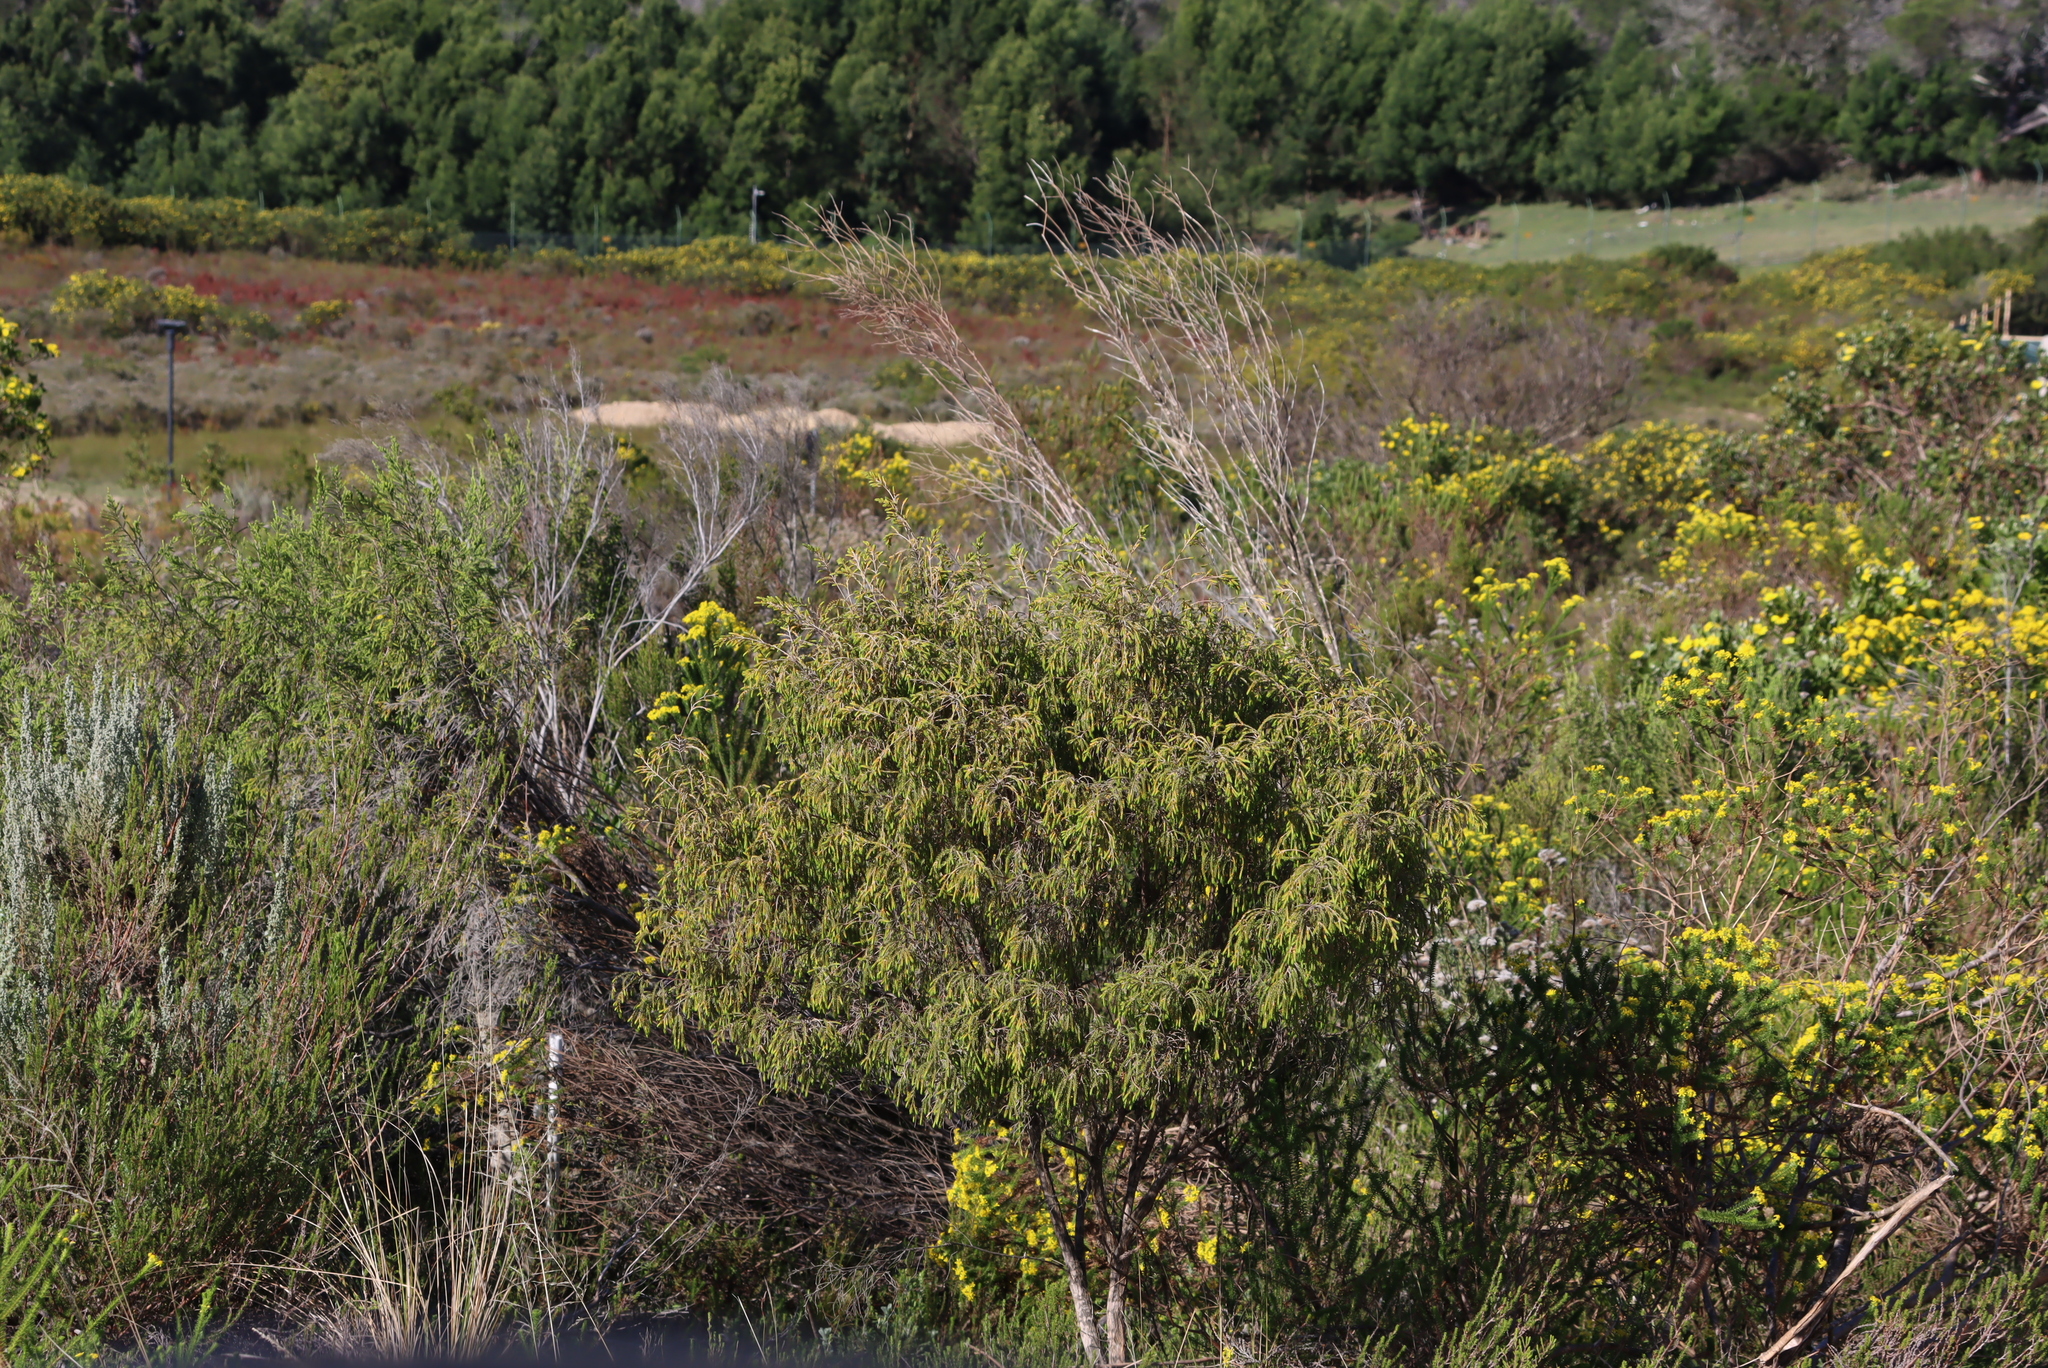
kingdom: Plantae
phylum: Tracheophyta
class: Magnoliopsida
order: Malvales
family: Thymelaeaceae
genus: Passerina
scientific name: Passerina falcifolia
